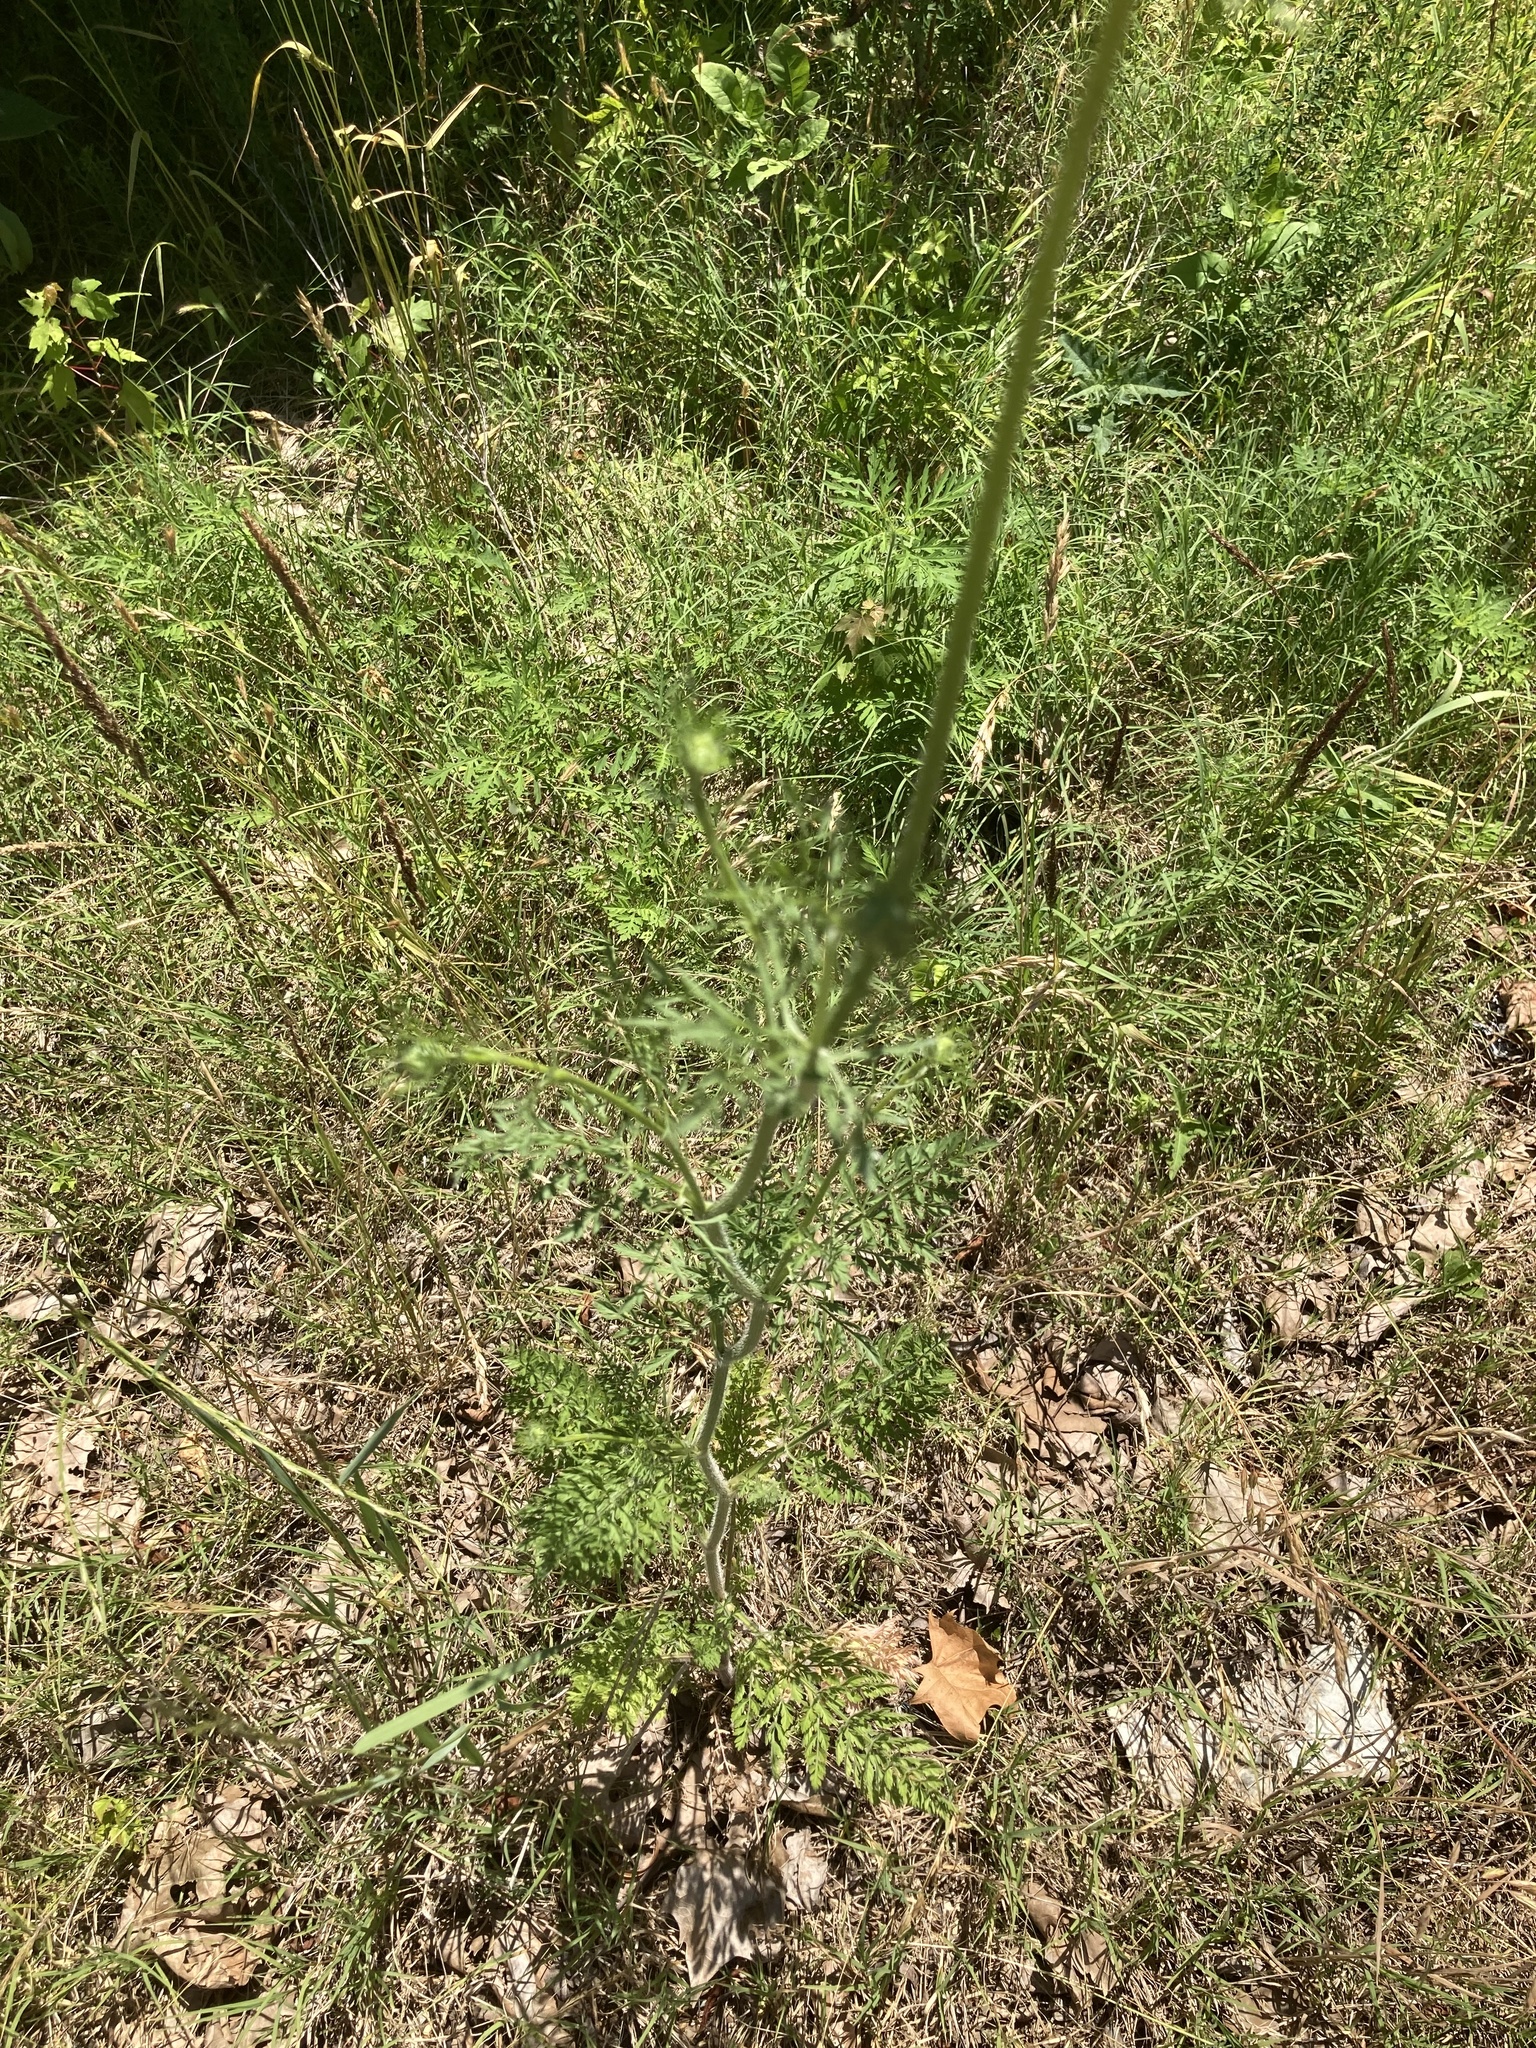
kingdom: Plantae
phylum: Tracheophyta
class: Magnoliopsida
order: Apiales
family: Apiaceae
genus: Daucus
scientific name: Daucus carota
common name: Wild carrot
